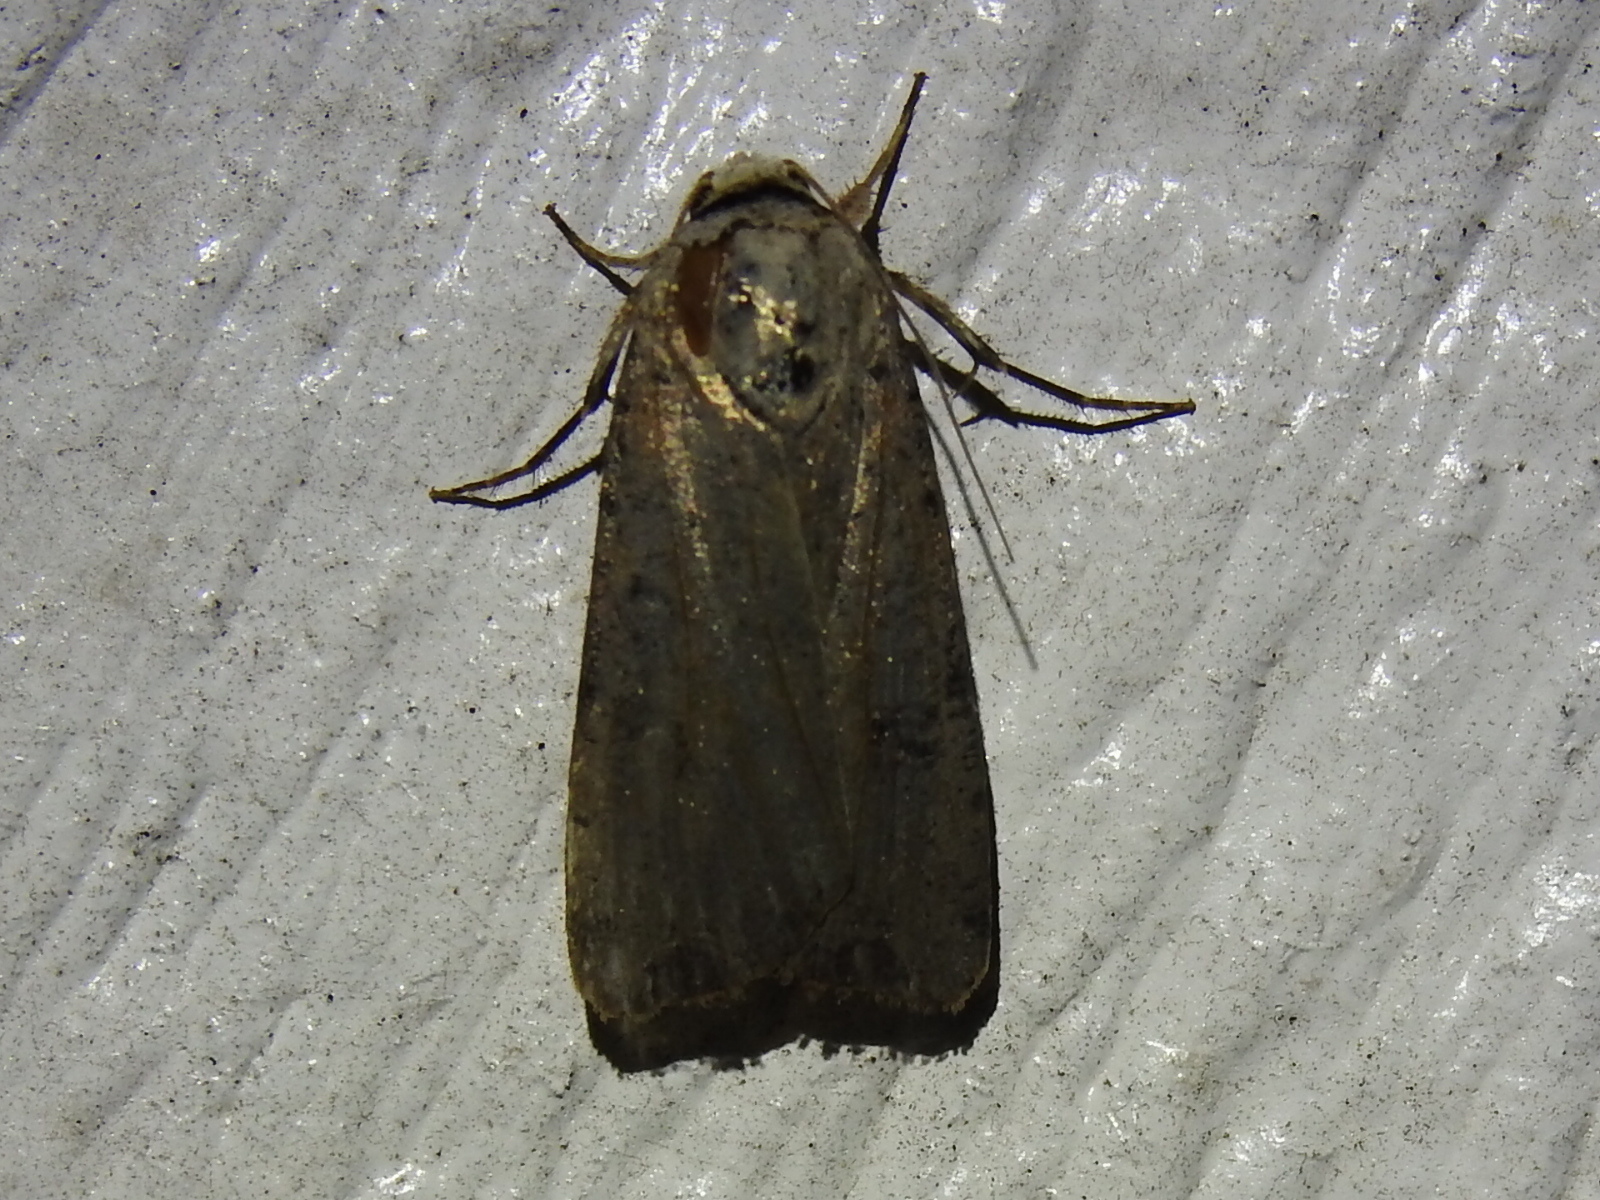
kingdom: Animalia
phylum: Arthropoda
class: Insecta
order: Lepidoptera
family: Noctuidae
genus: Anicla
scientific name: Anicla infecta
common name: Green cutworm
